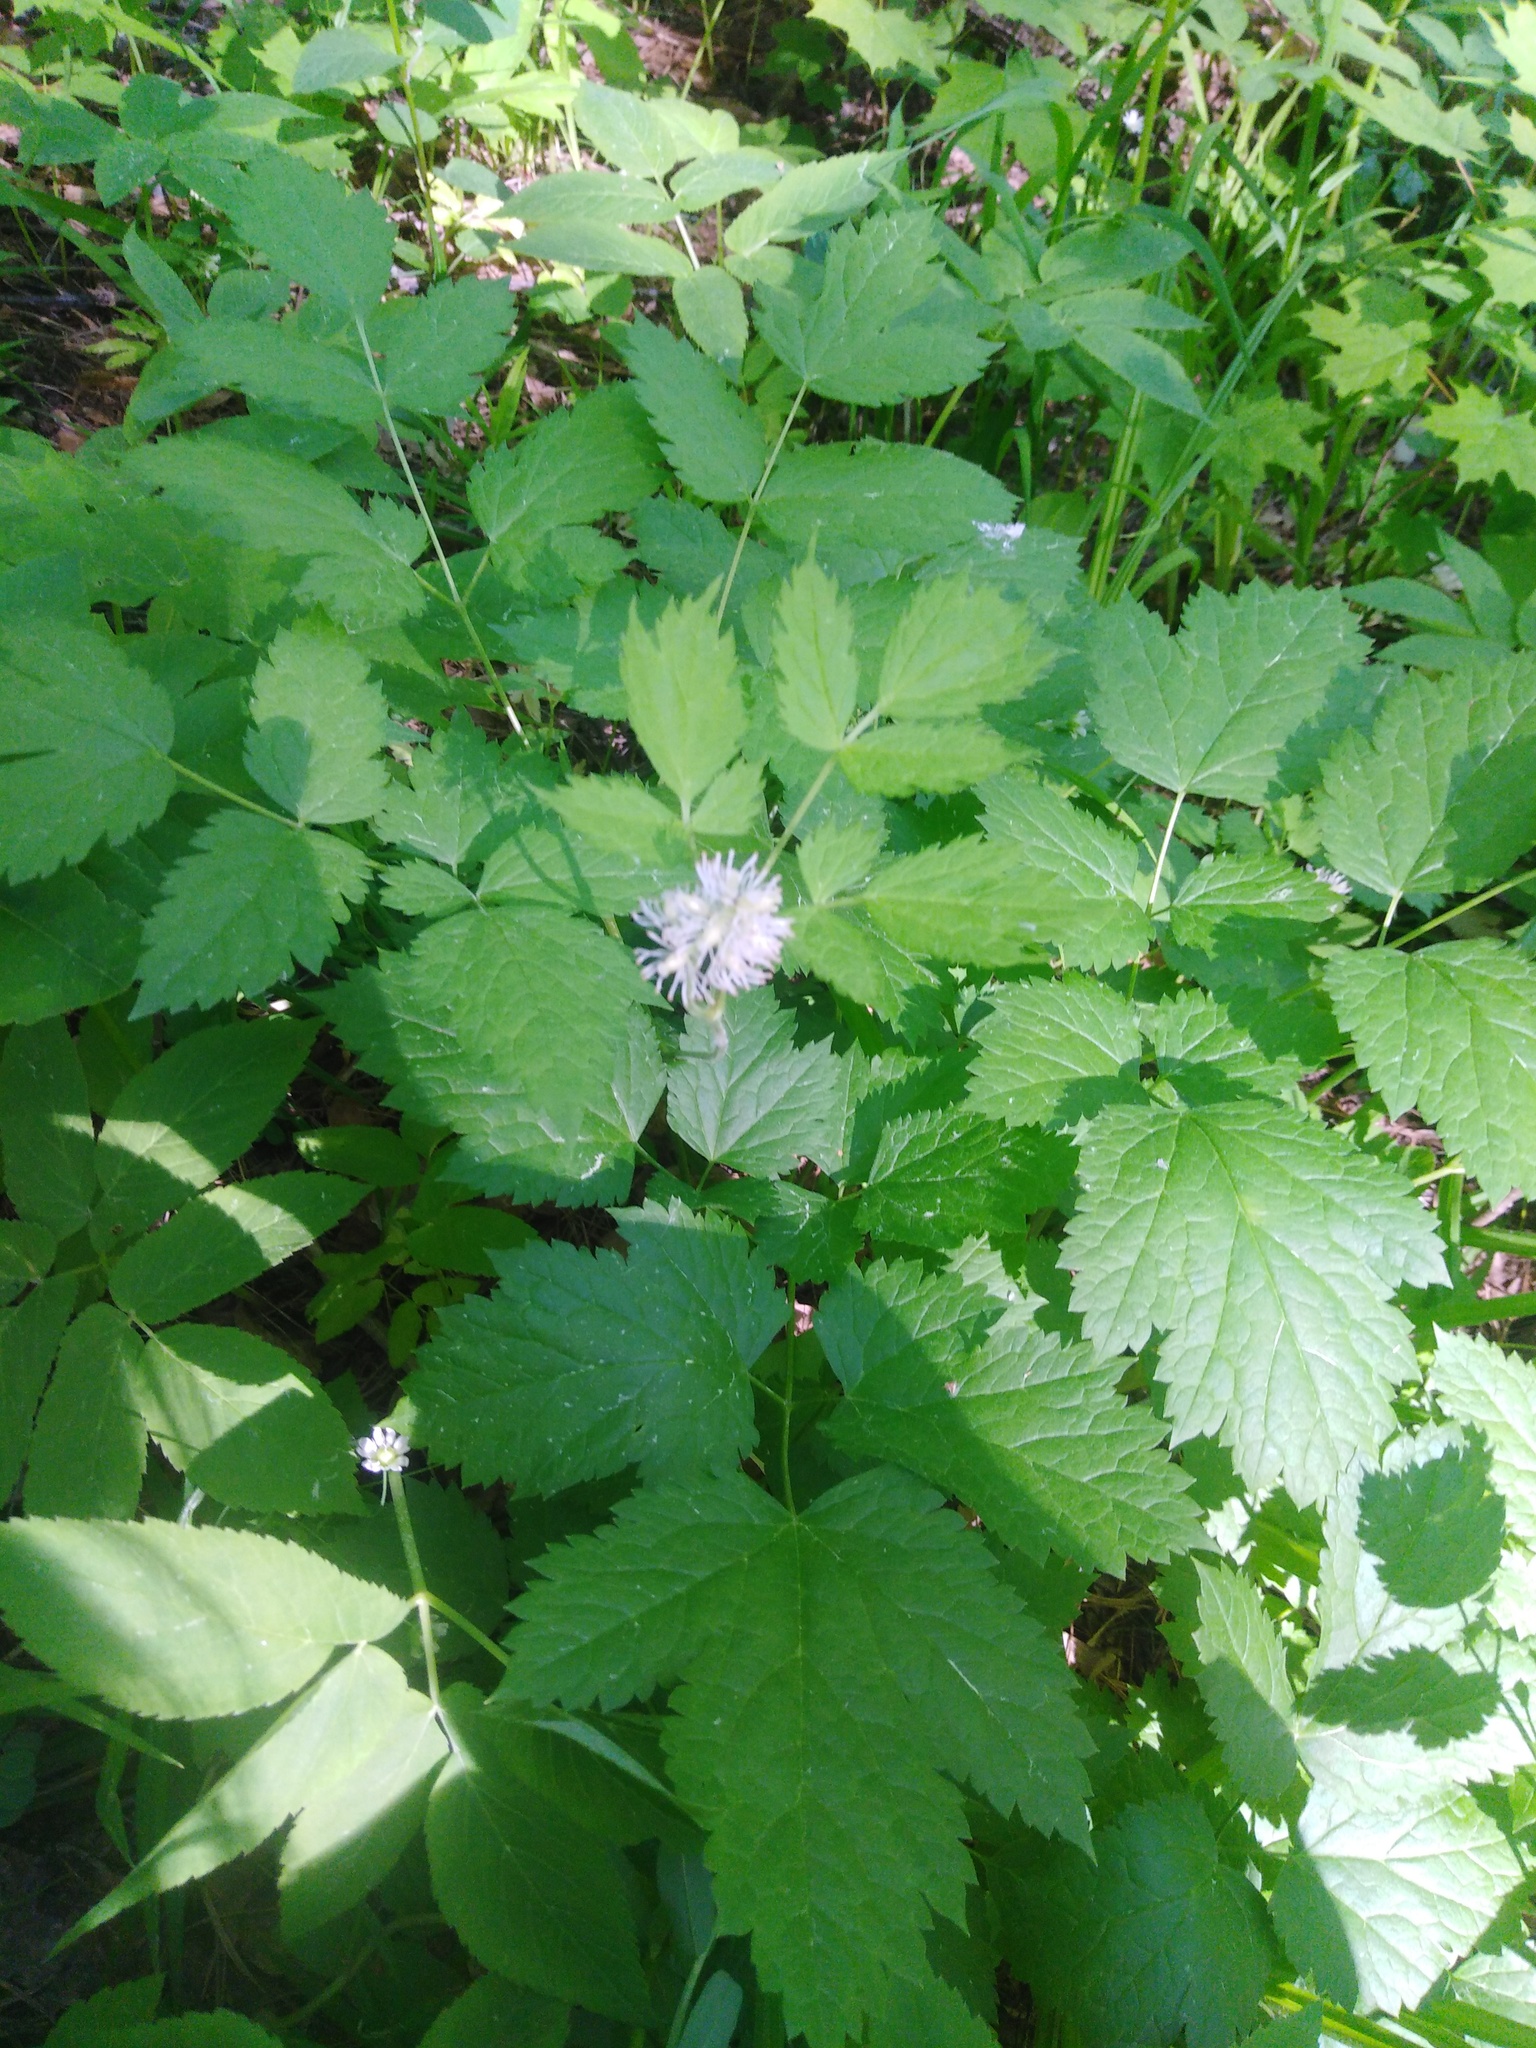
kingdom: Plantae
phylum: Tracheophyta
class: Magnoliopsida
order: Ranunculales
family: Ranunculaceae
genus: Actaea
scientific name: Actaea spicata
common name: Baneberry
